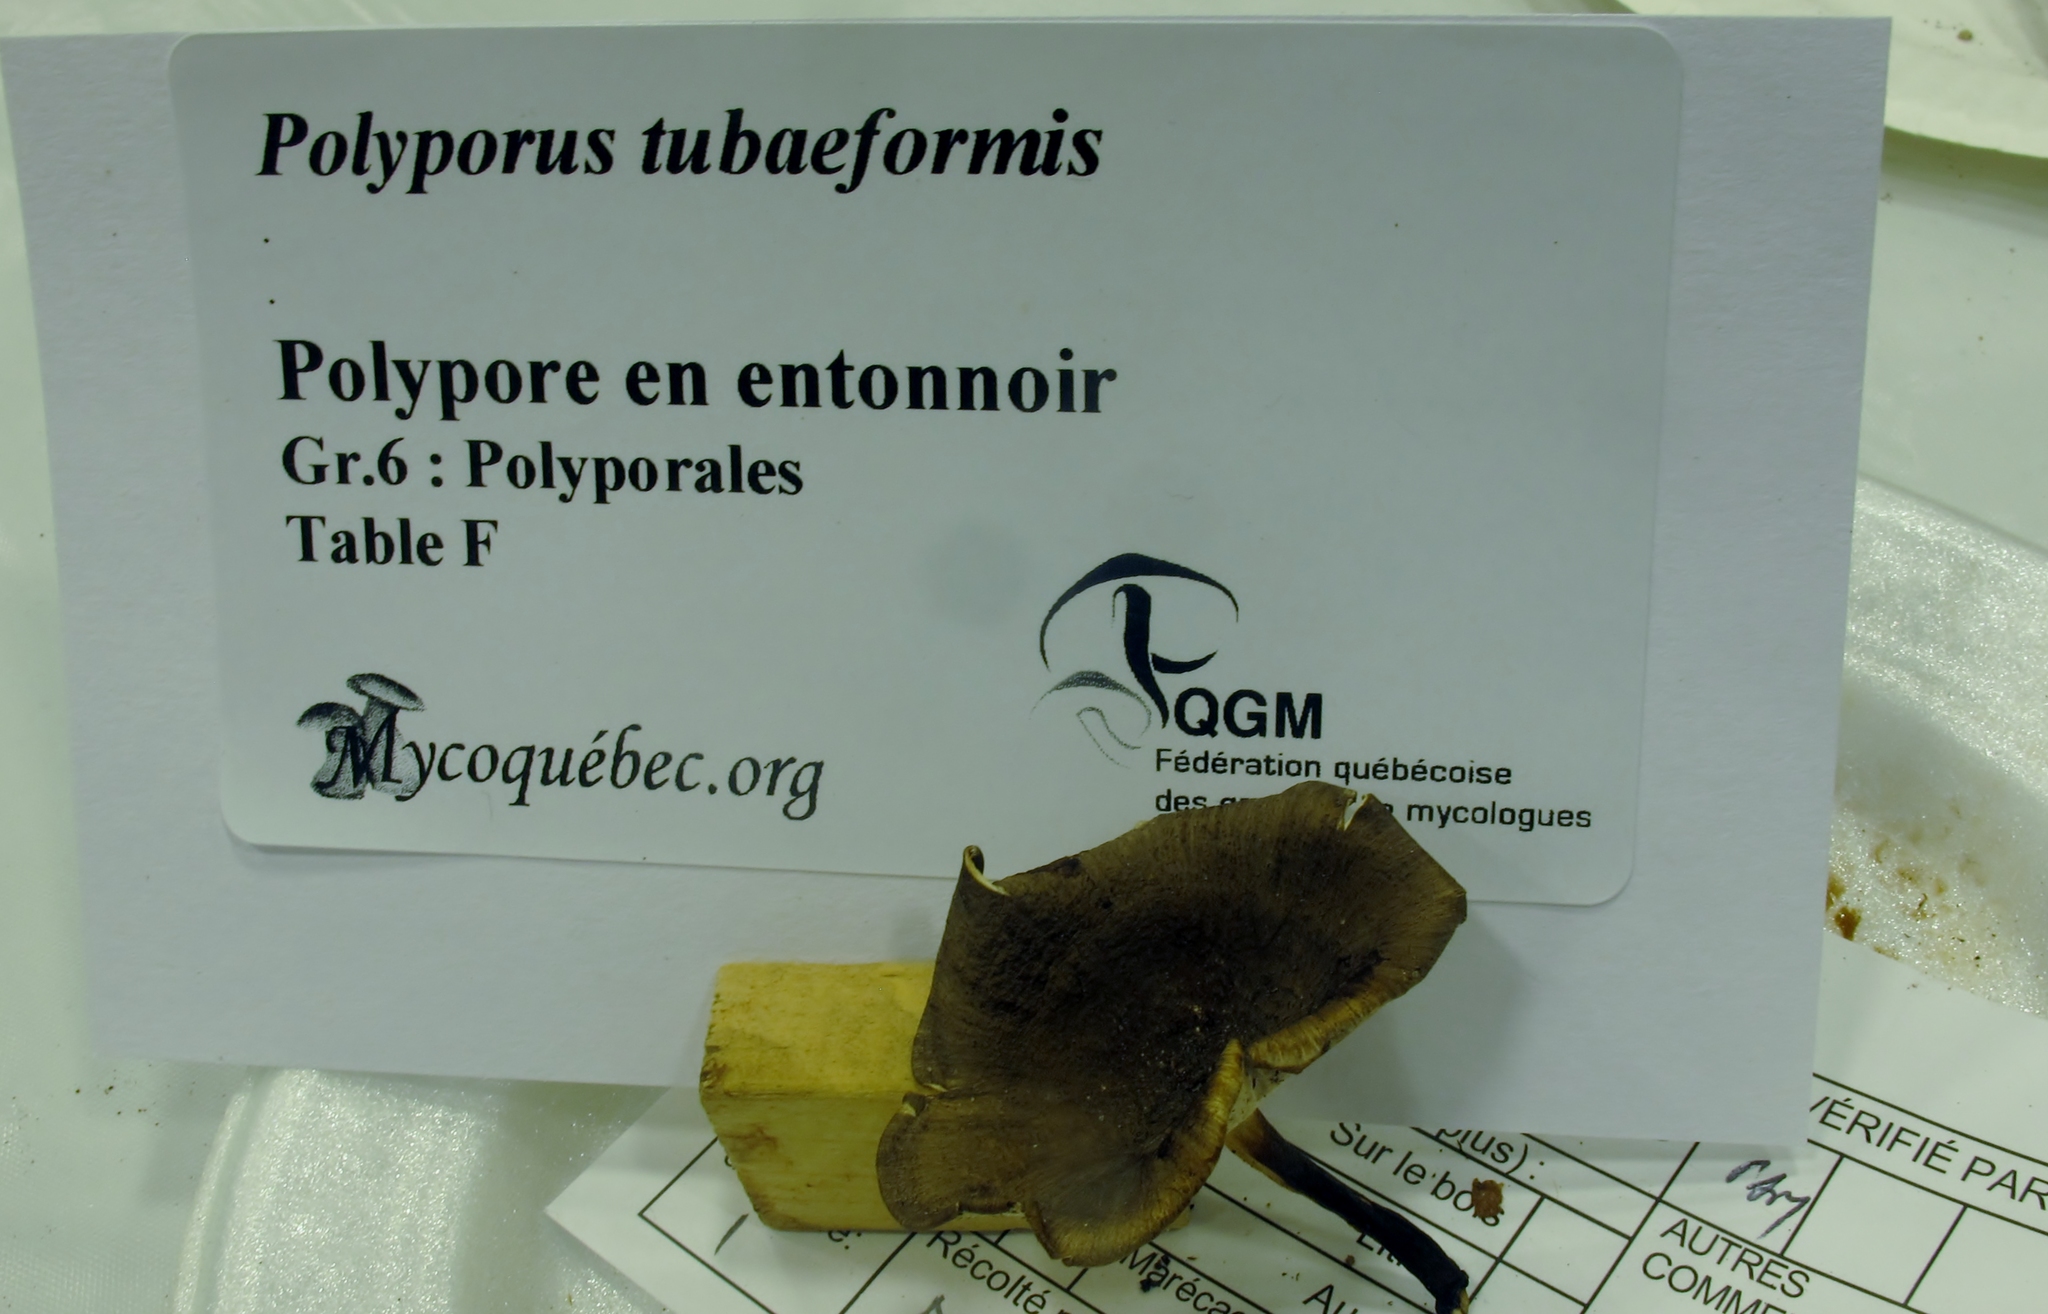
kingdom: Fungi
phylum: Basidiomycota
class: Agaricomycetes
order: Polyporales
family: Polyporaceae
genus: Picipes
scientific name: Picipes tubaeformis
